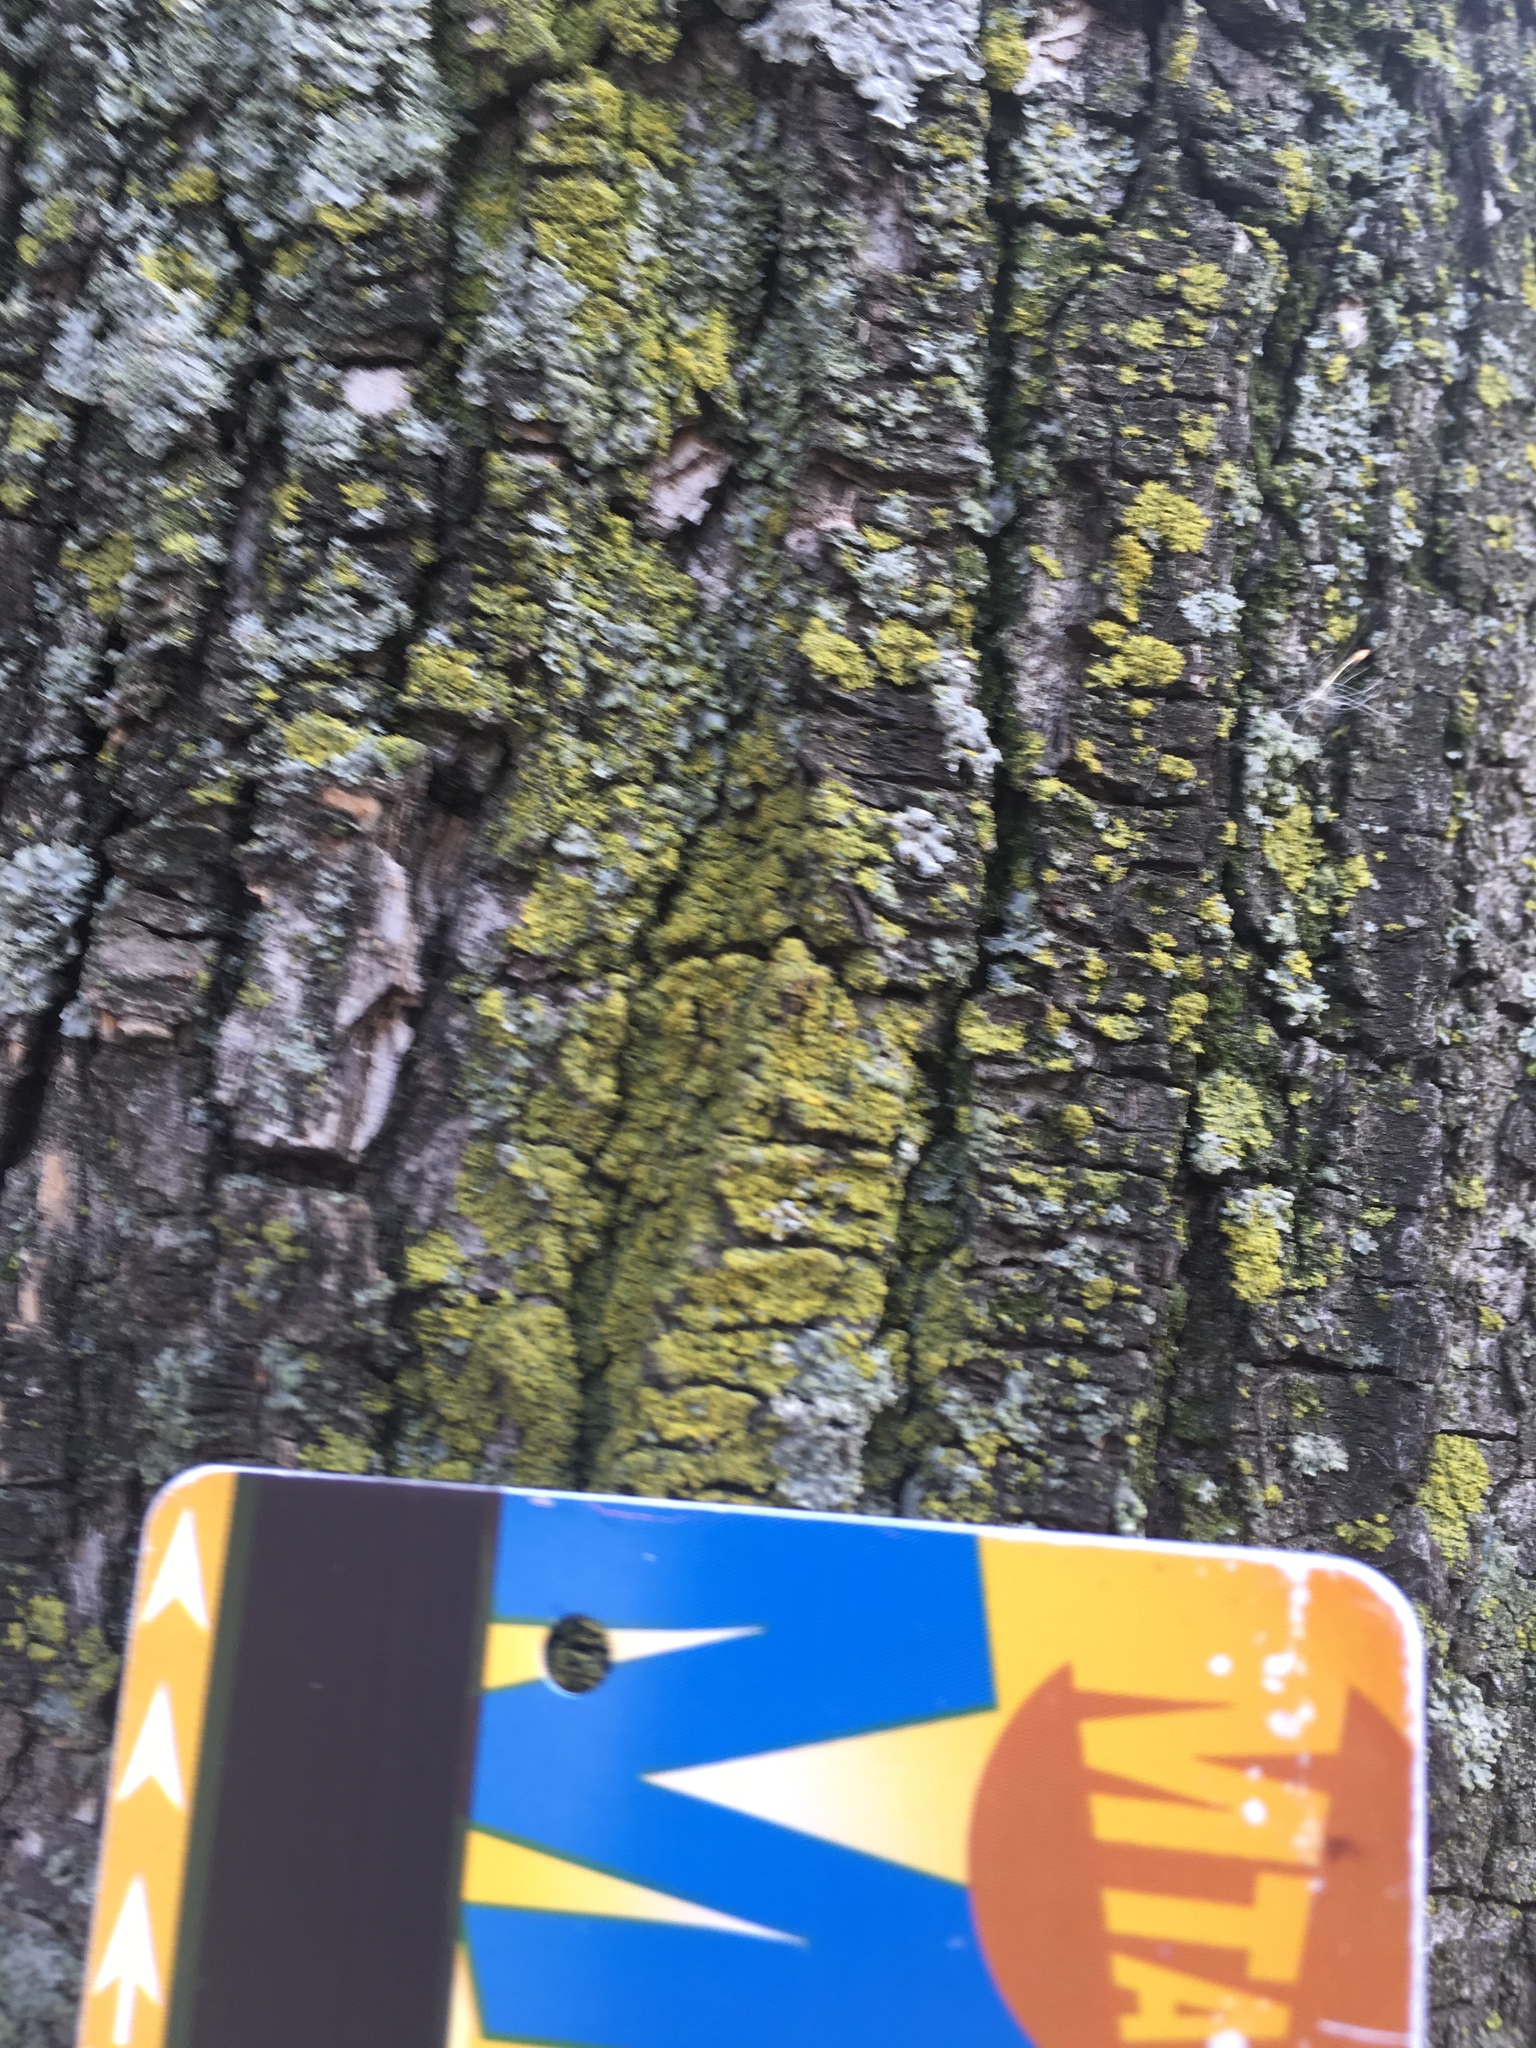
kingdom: Fungi
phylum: Ascomycota
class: Candelariomycetes
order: Candelariales
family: Candelariaceae
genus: Candelaria
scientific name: Candelaria concolor
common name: Candleflame lichen
